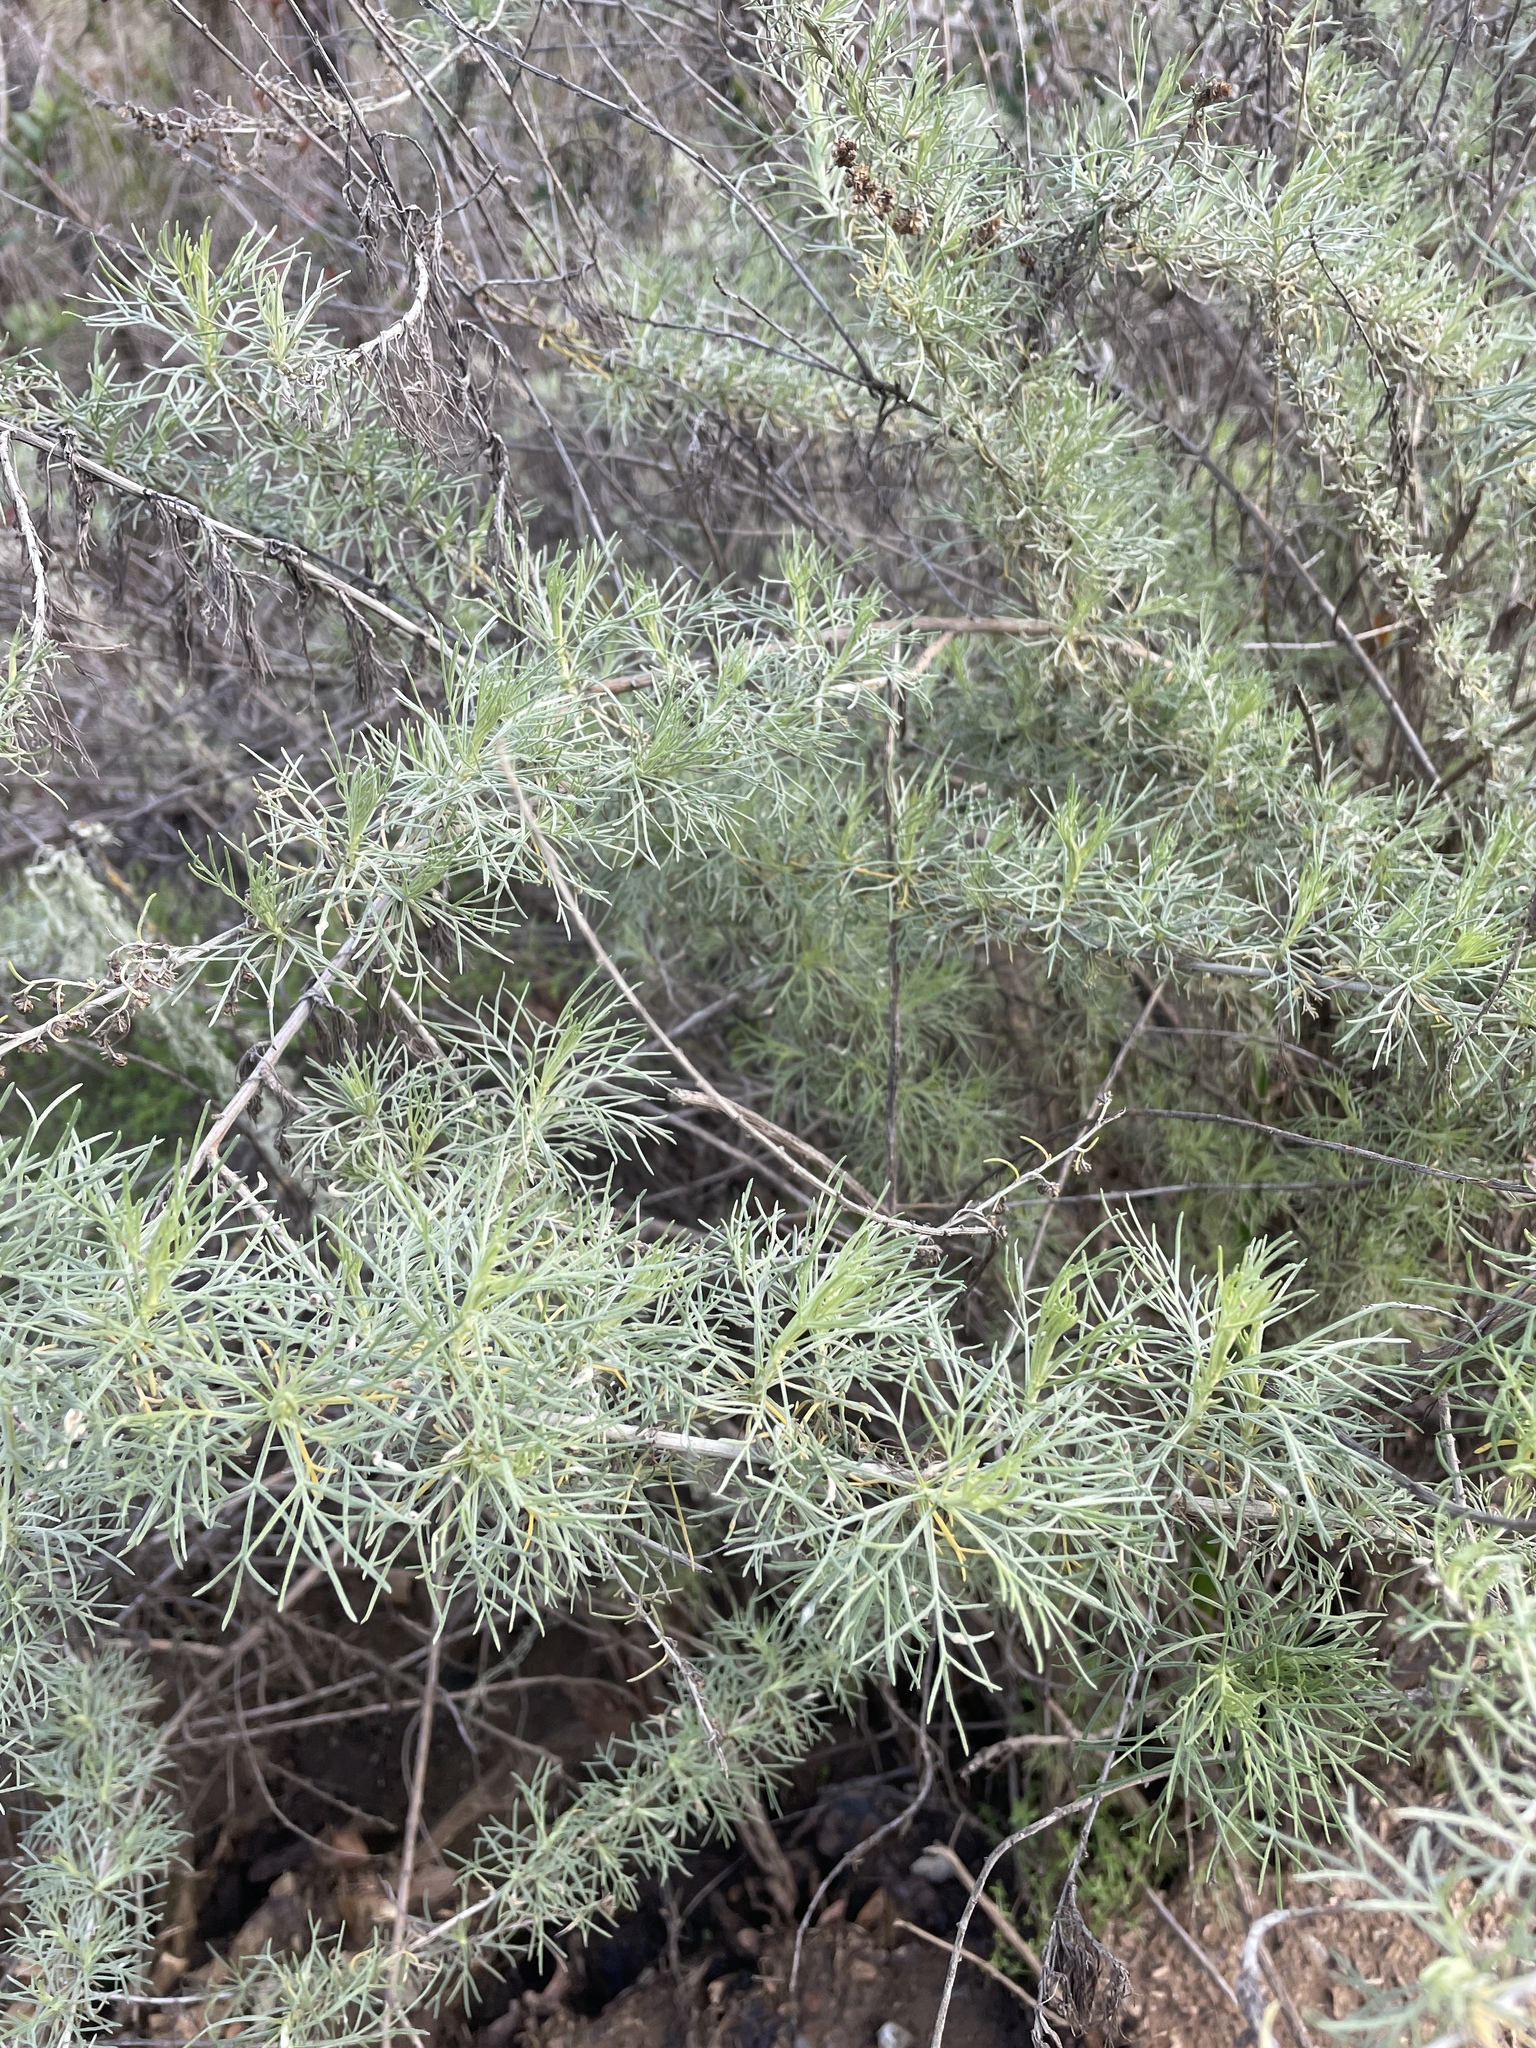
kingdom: Plantae
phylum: Tracheophyta
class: Magnoliopsida
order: Asterales
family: Asteraceae
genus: Artemisia
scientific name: Artemisia californica
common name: California sagebrush
